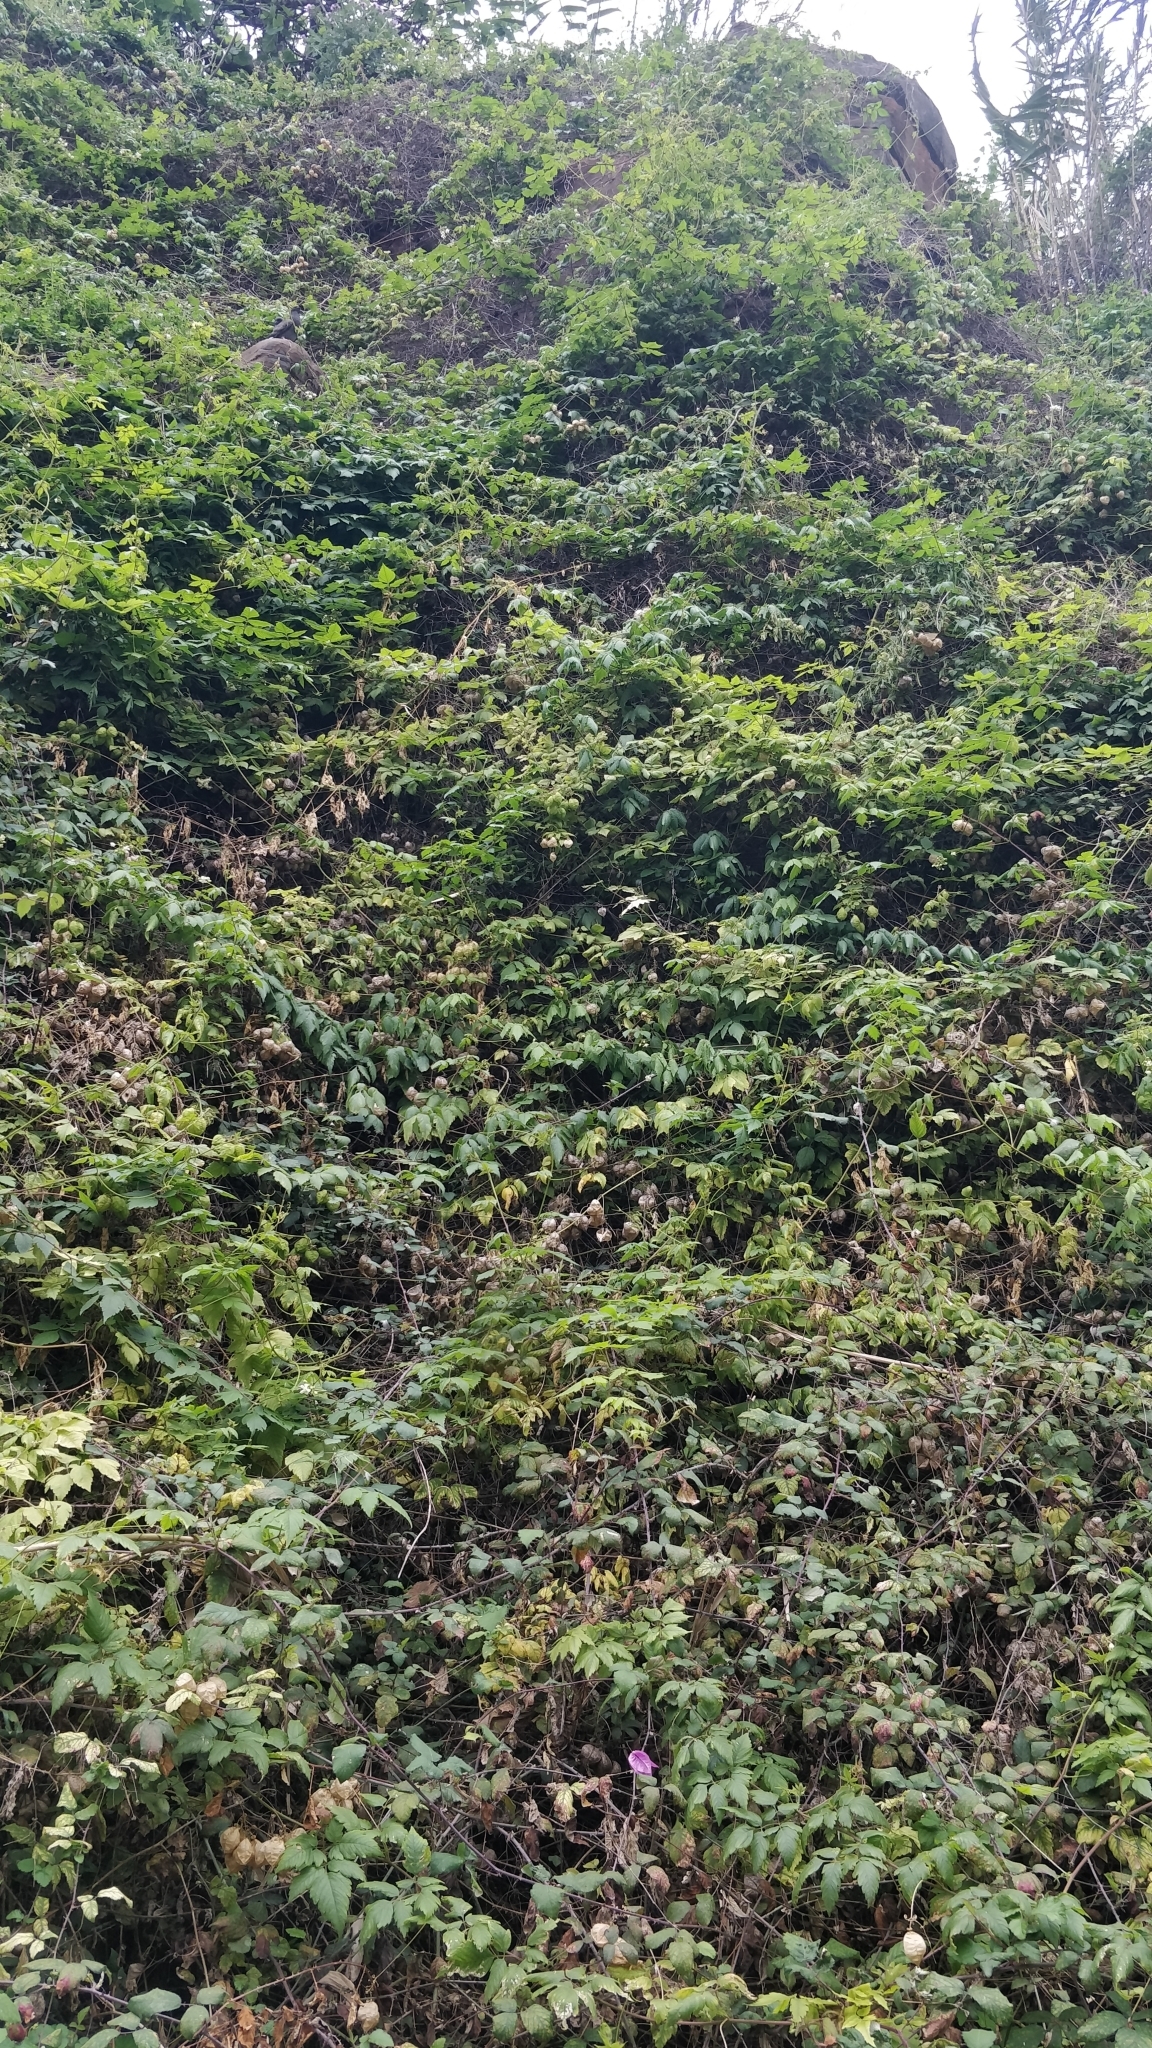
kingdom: Plantae
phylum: Tracheophyta
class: Magnoliopsida
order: Sapindales
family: Sapindaceae
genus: Cardiospermum
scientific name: Cardiospermum grandiflorum
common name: Balloon vine
